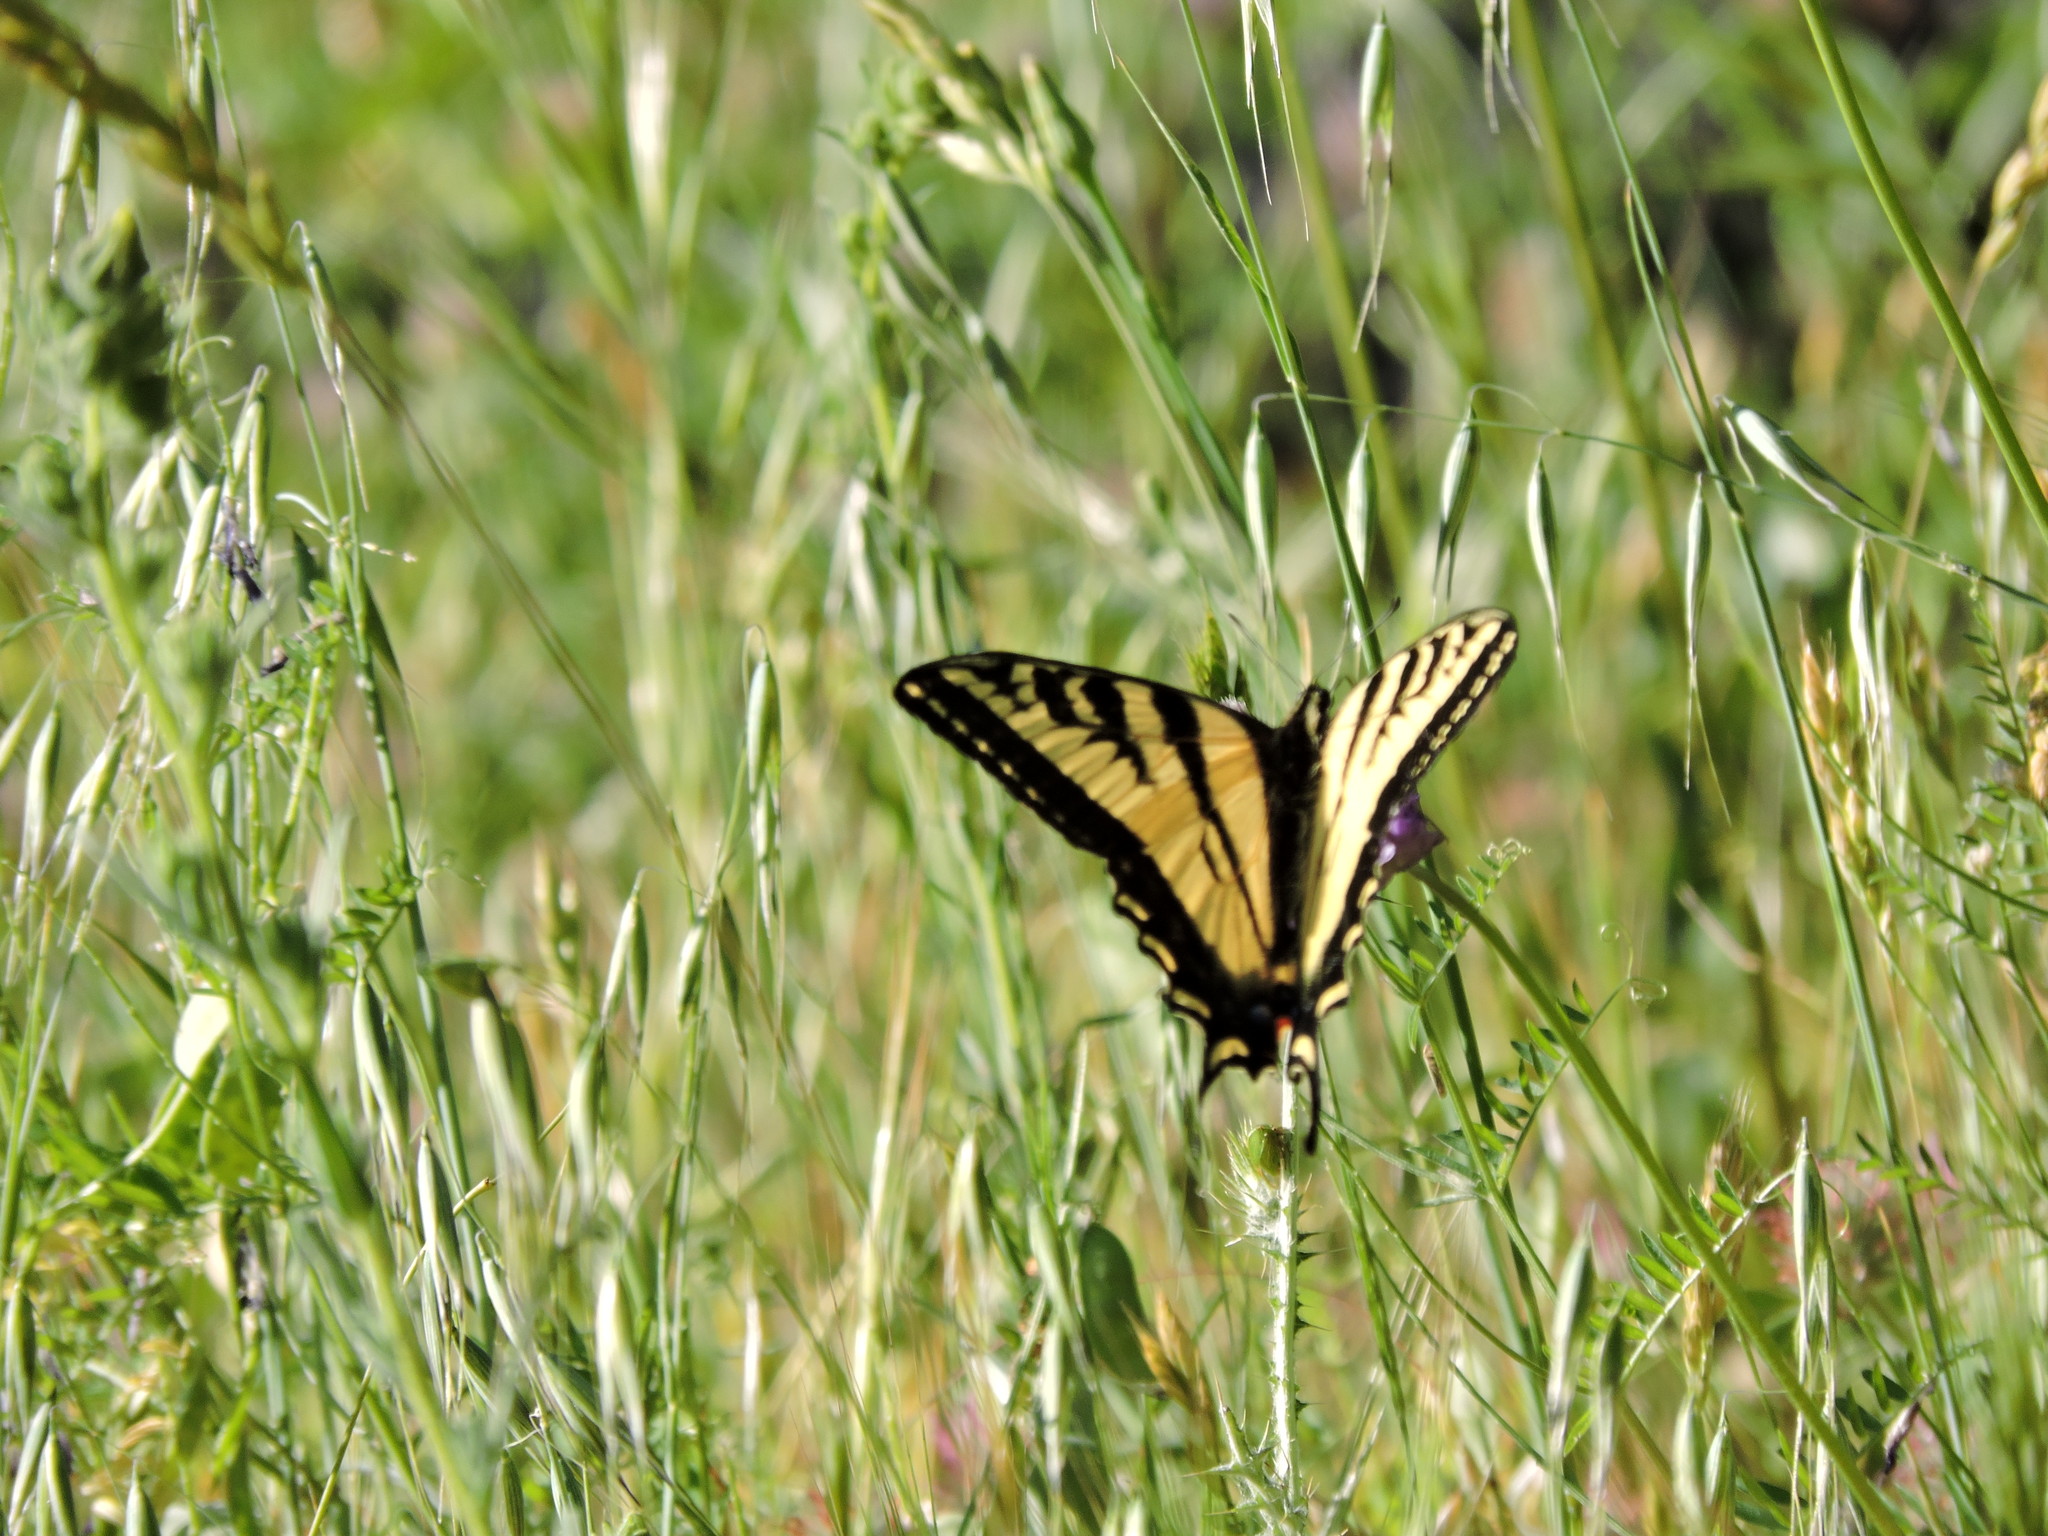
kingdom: Animalia
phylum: Arthropoda
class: Insecta
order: Lepidoptera
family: Papilionidae
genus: Papilio
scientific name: Papilio rutulus
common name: Western tiger swallowtail
